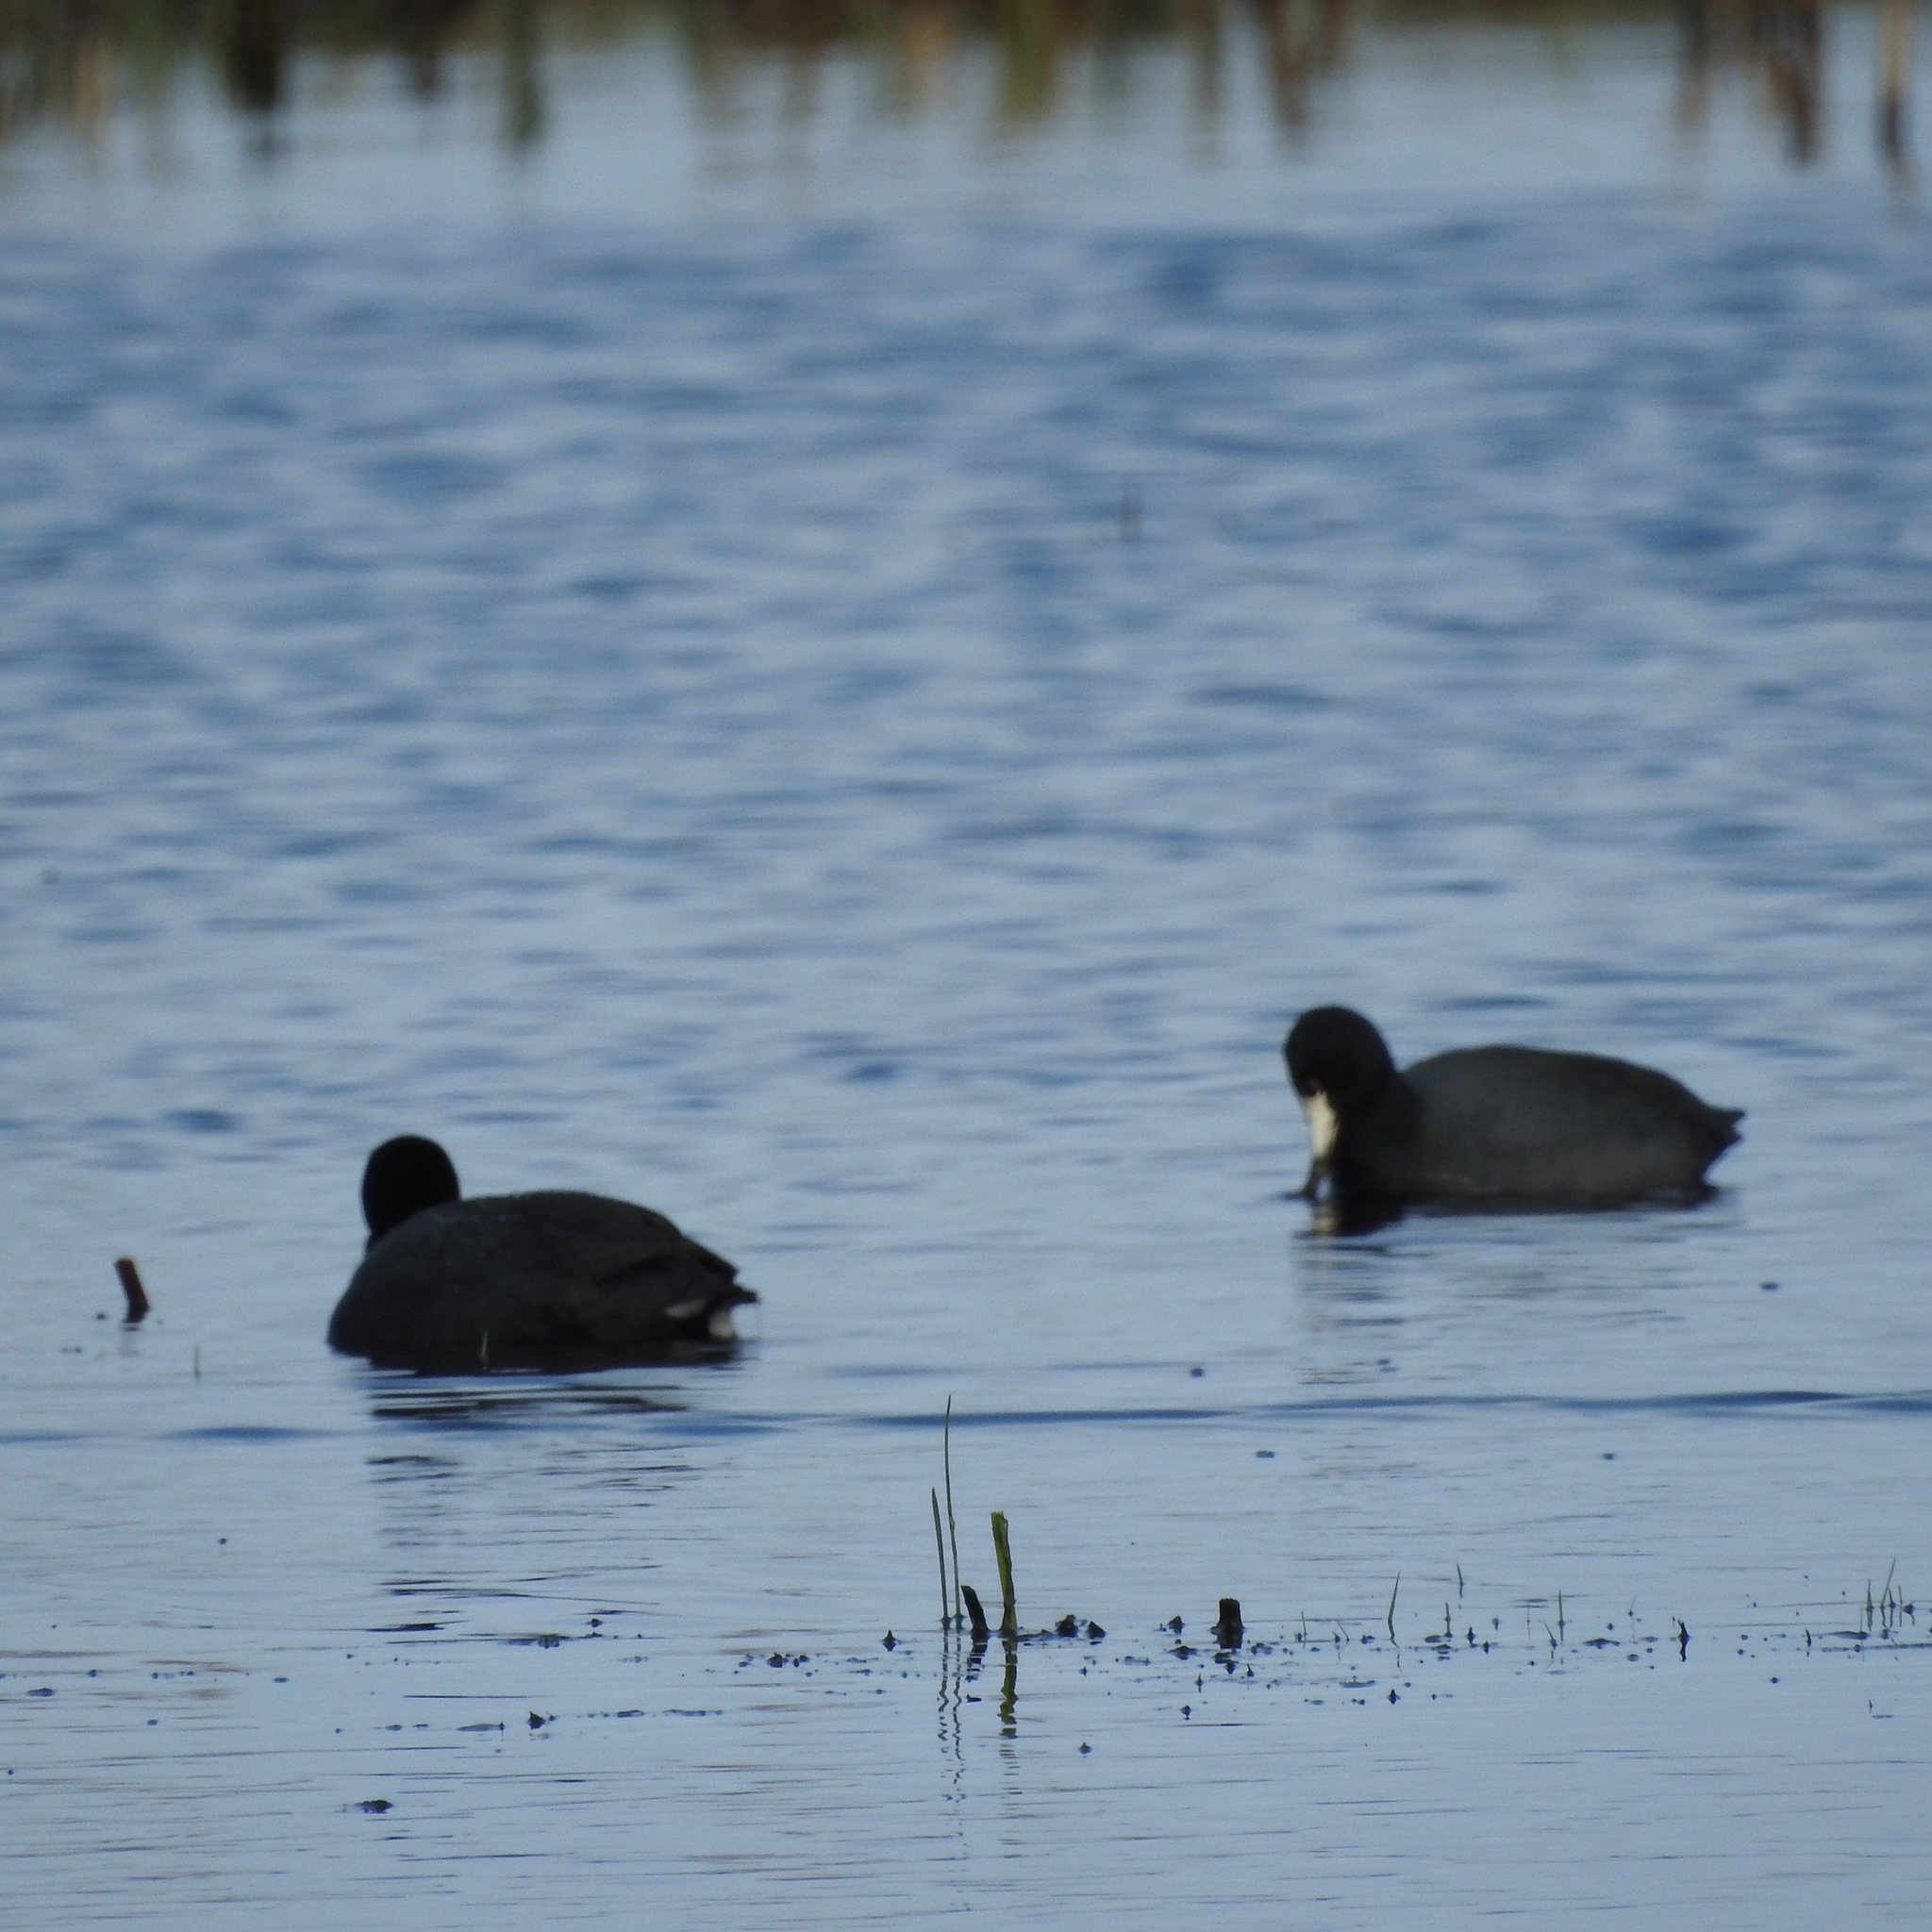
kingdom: Animalia
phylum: Chordata
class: Aves
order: Gruiformes
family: Rallidae
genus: Fulica
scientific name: Fulica americana
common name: American coot
